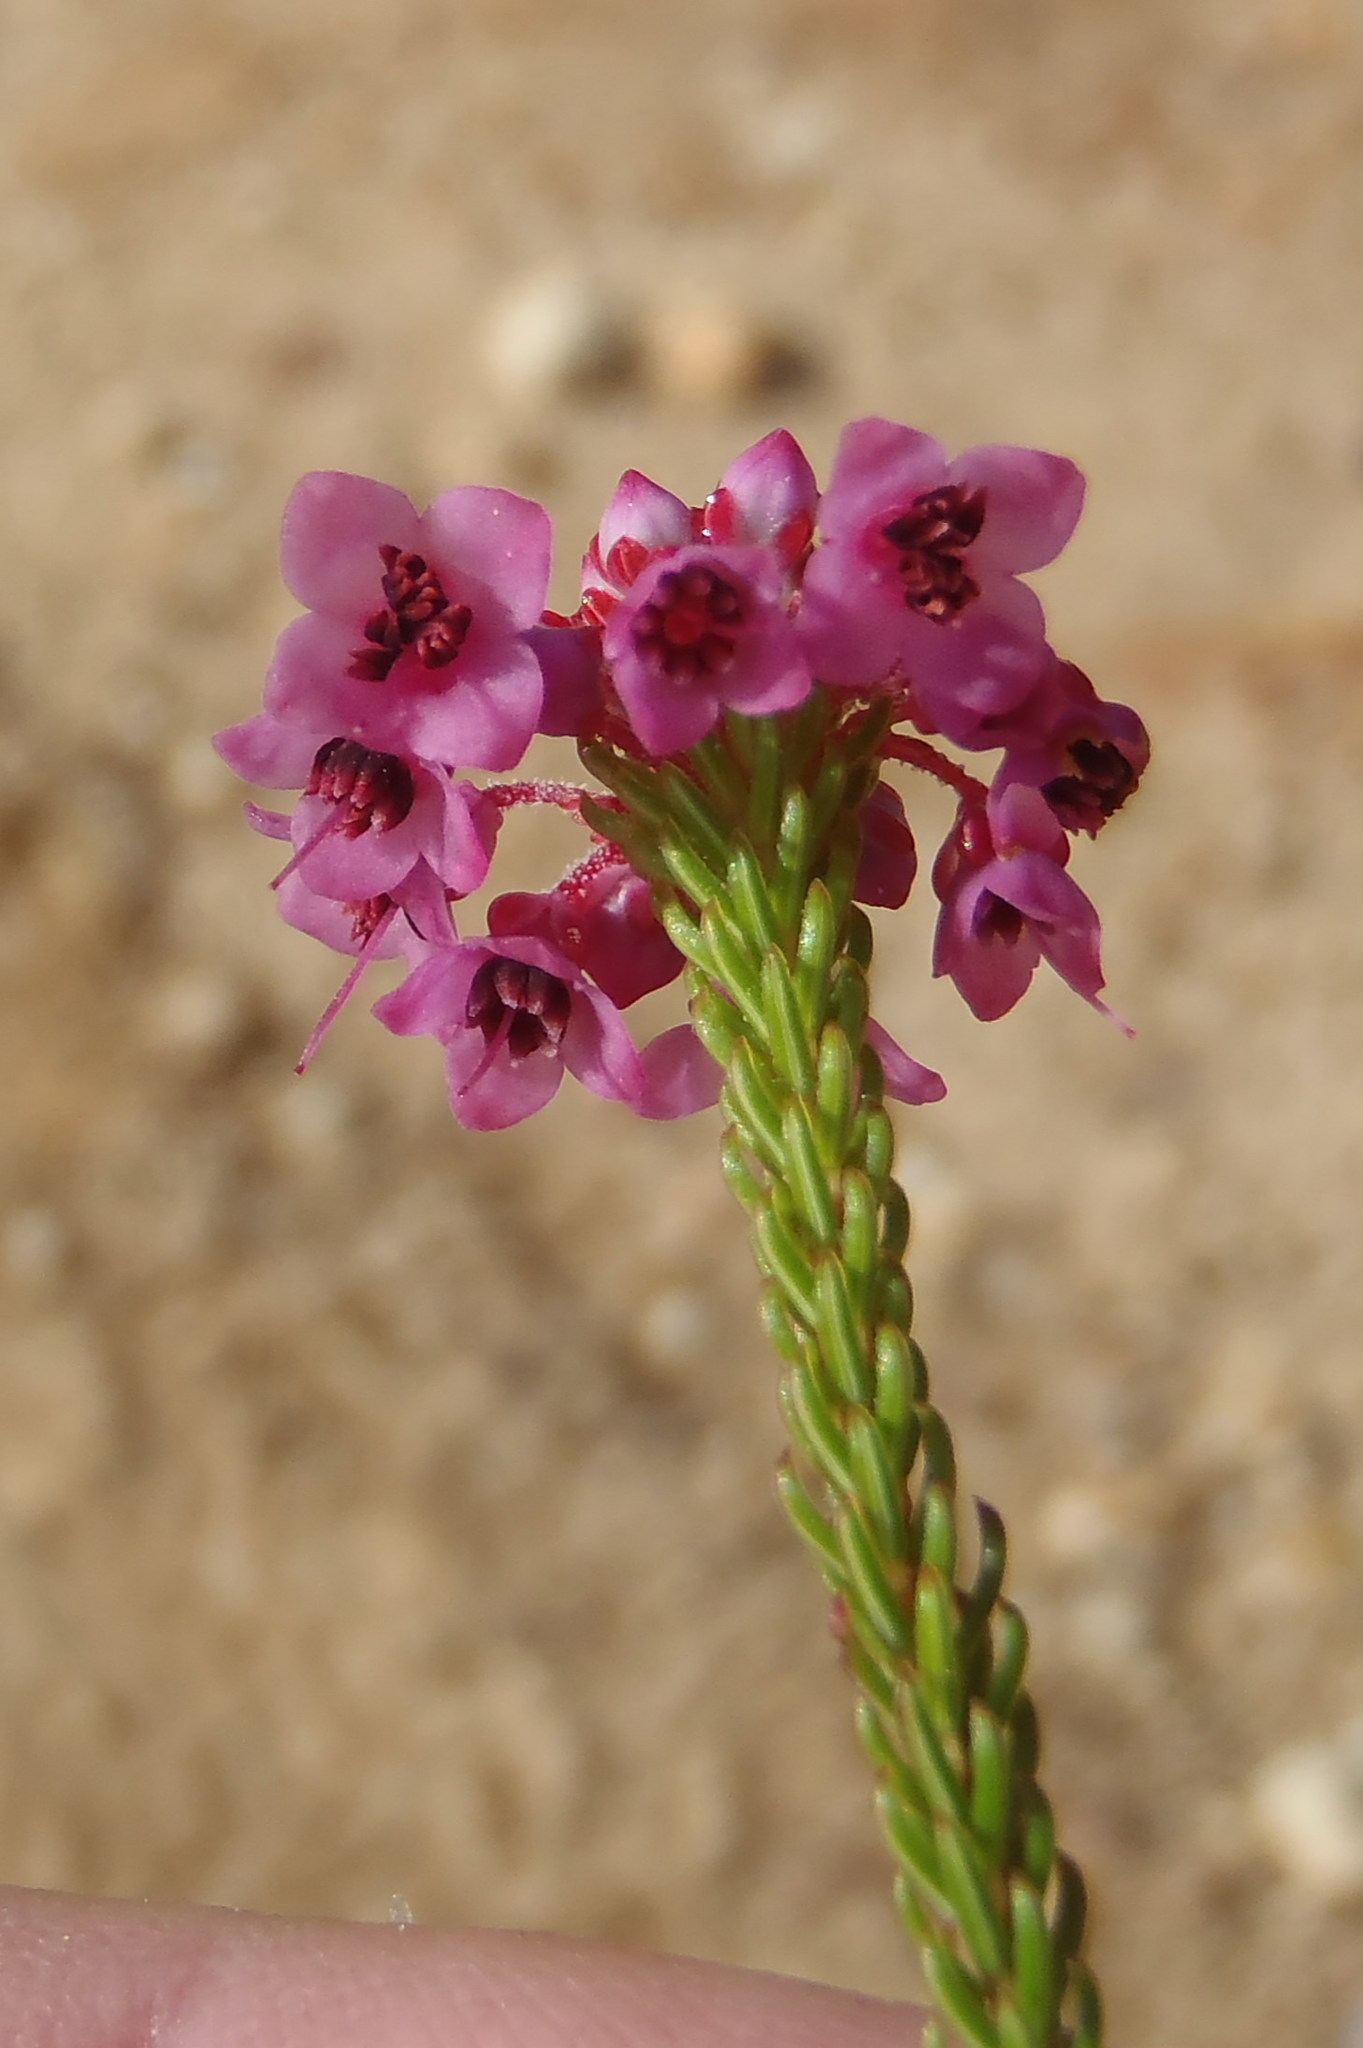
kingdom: Plantae
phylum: Tracheophyta
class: Magnoliopsida
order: Ericales
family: Ericaceae
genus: Erica
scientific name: Erica seriphiifolia
